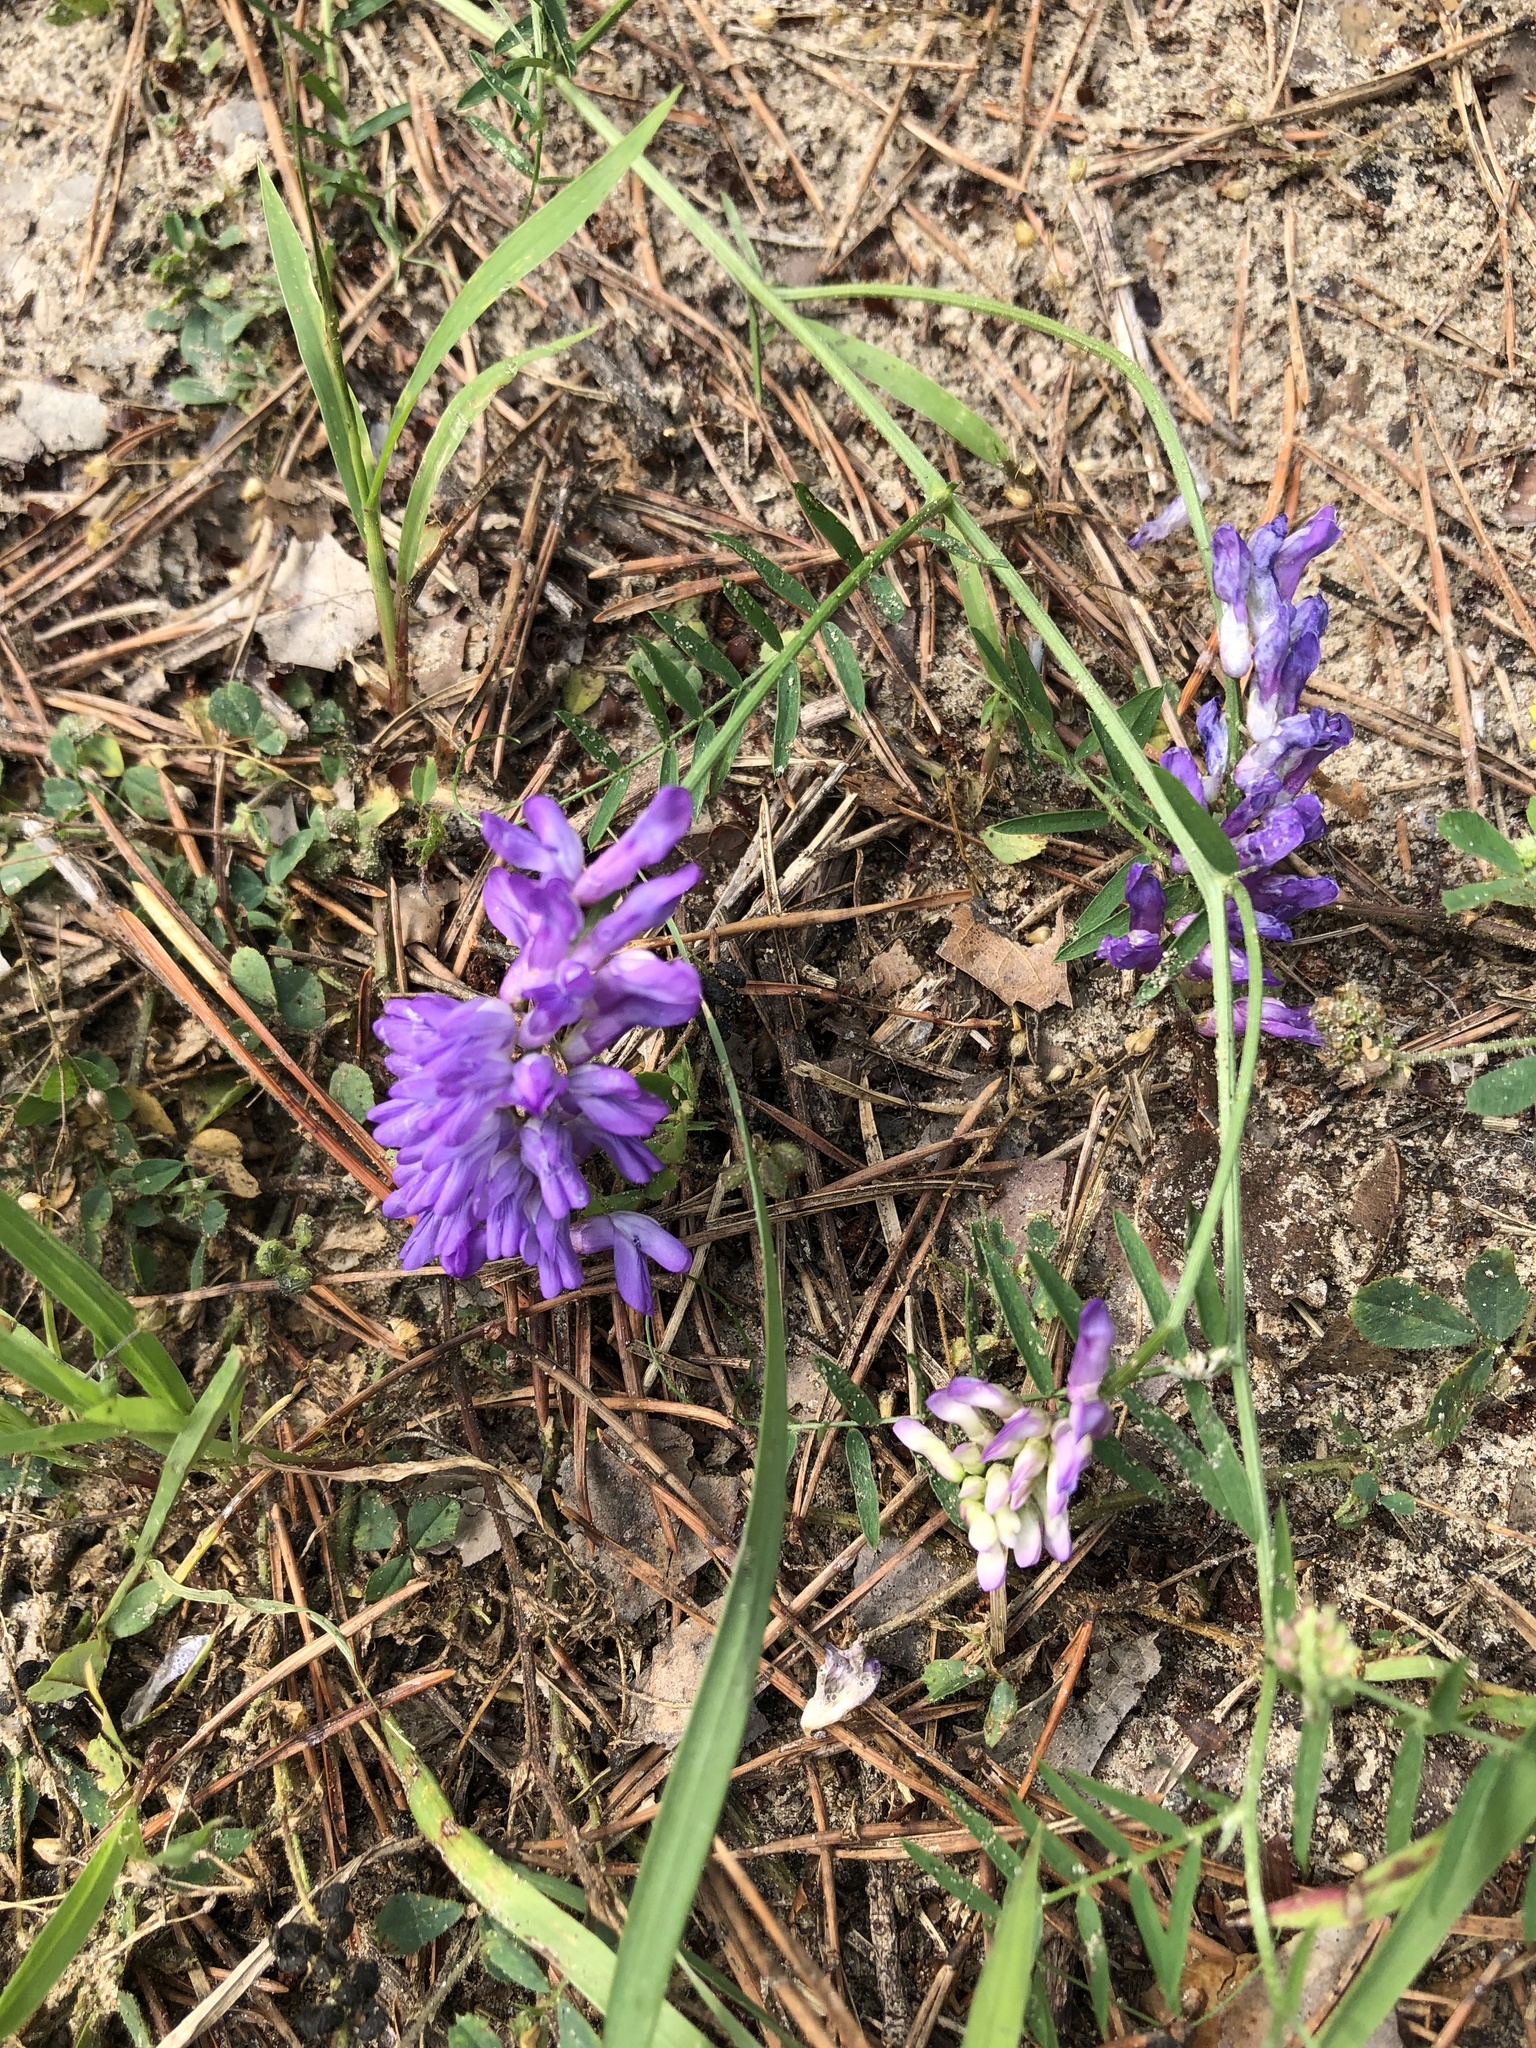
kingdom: Plantae
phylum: Tracheophyta
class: Magnoliopsida
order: Fabales
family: Fabaceae
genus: Vicia
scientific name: Vicia cracca
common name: Bird vetch
